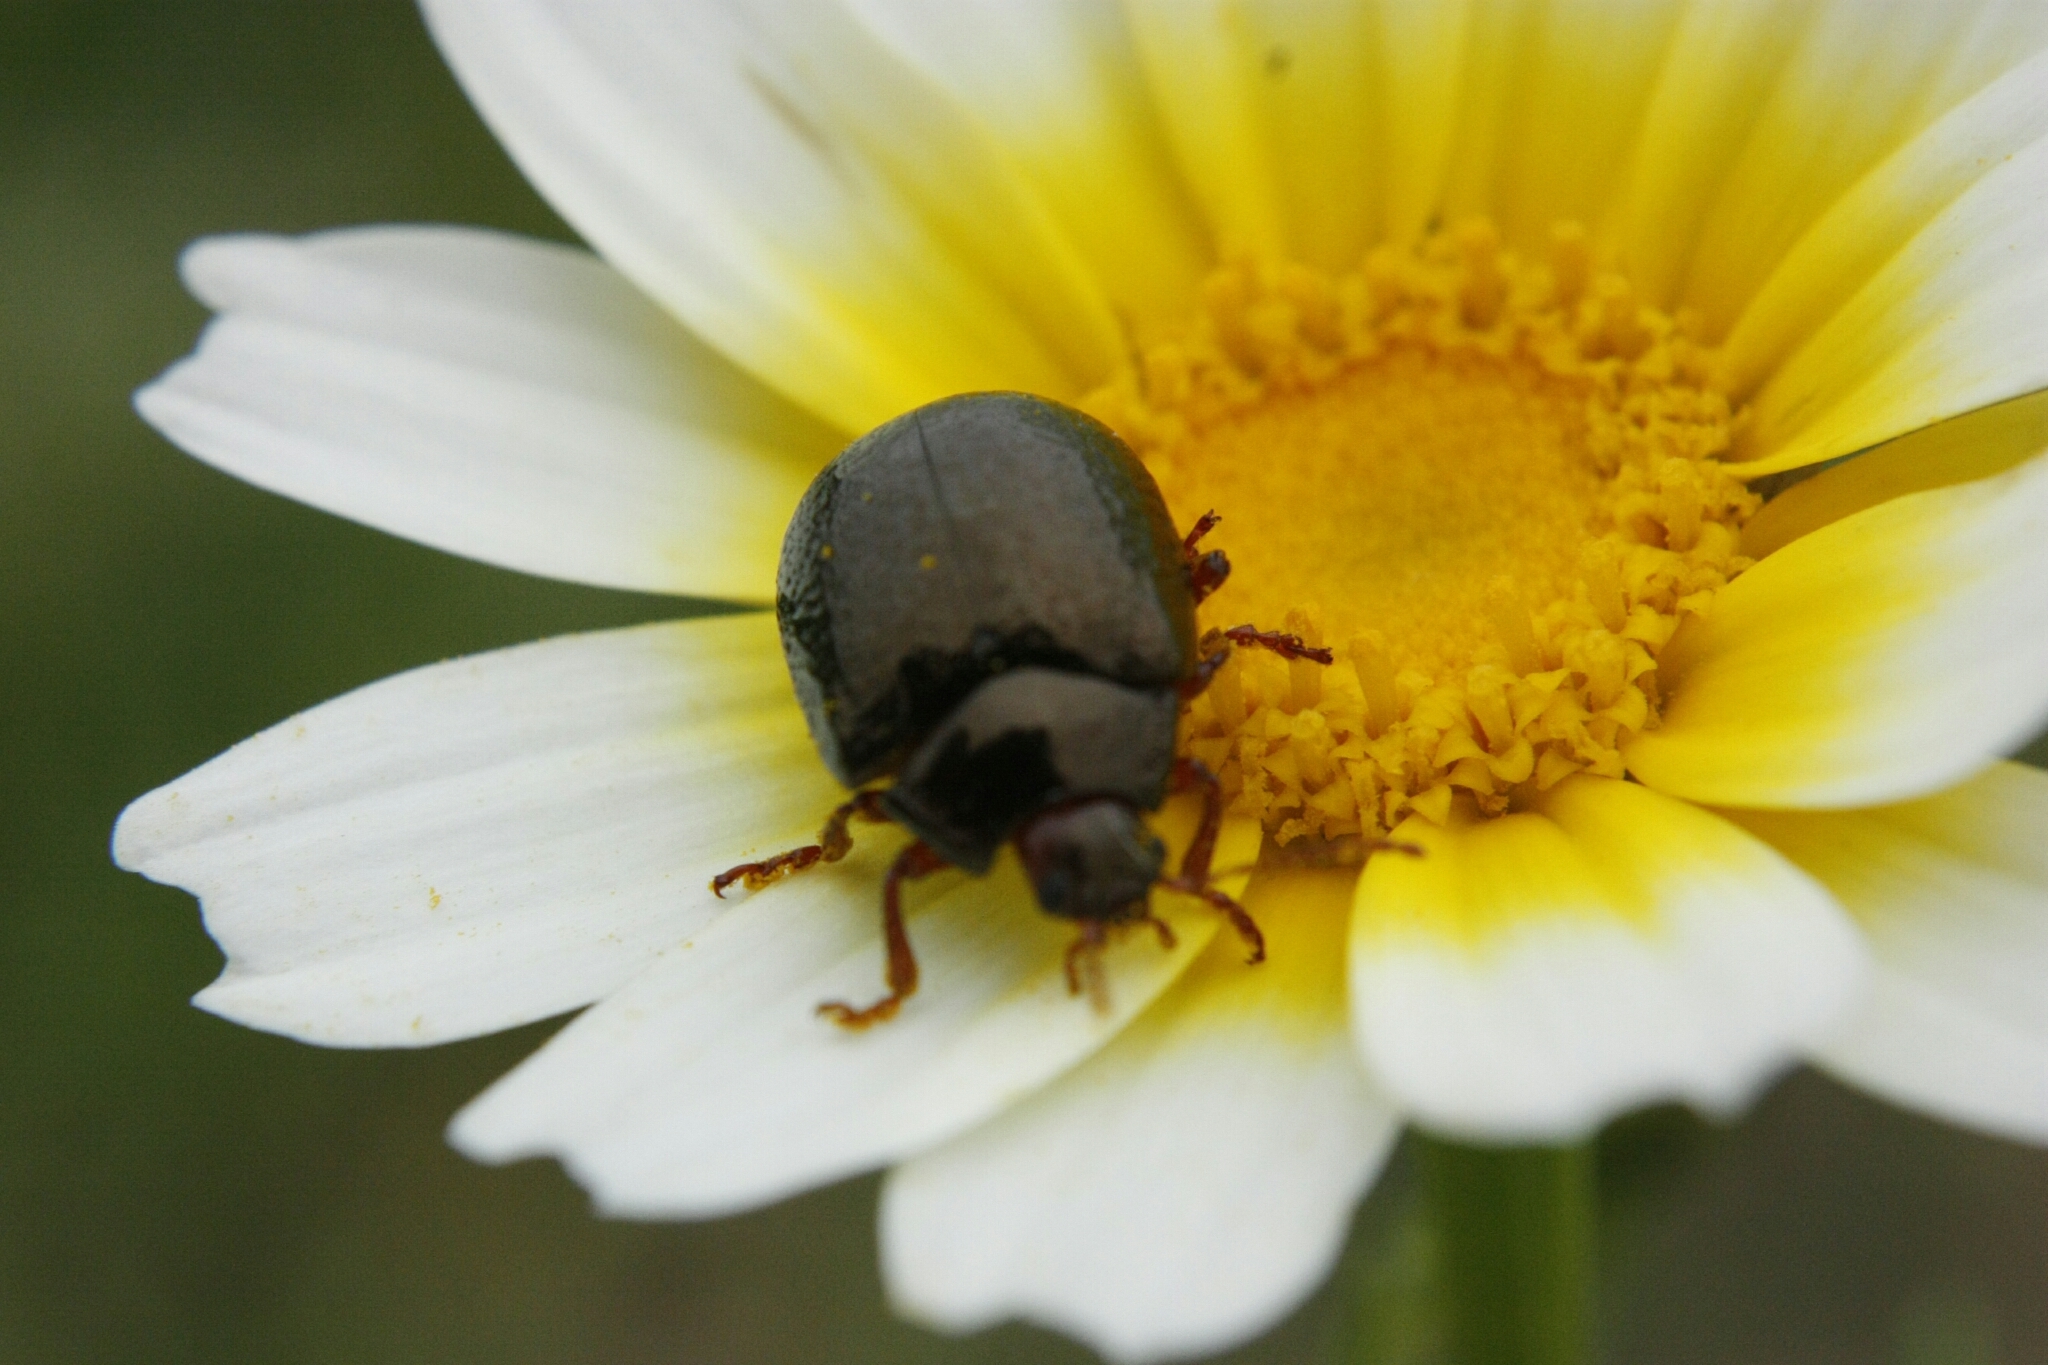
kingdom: Animalia
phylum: Arthropoda
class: Insecta
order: Coleoptera
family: Chrysomelidae
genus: Chrysolina
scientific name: Chrysolina bankii
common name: Leaf beetle
